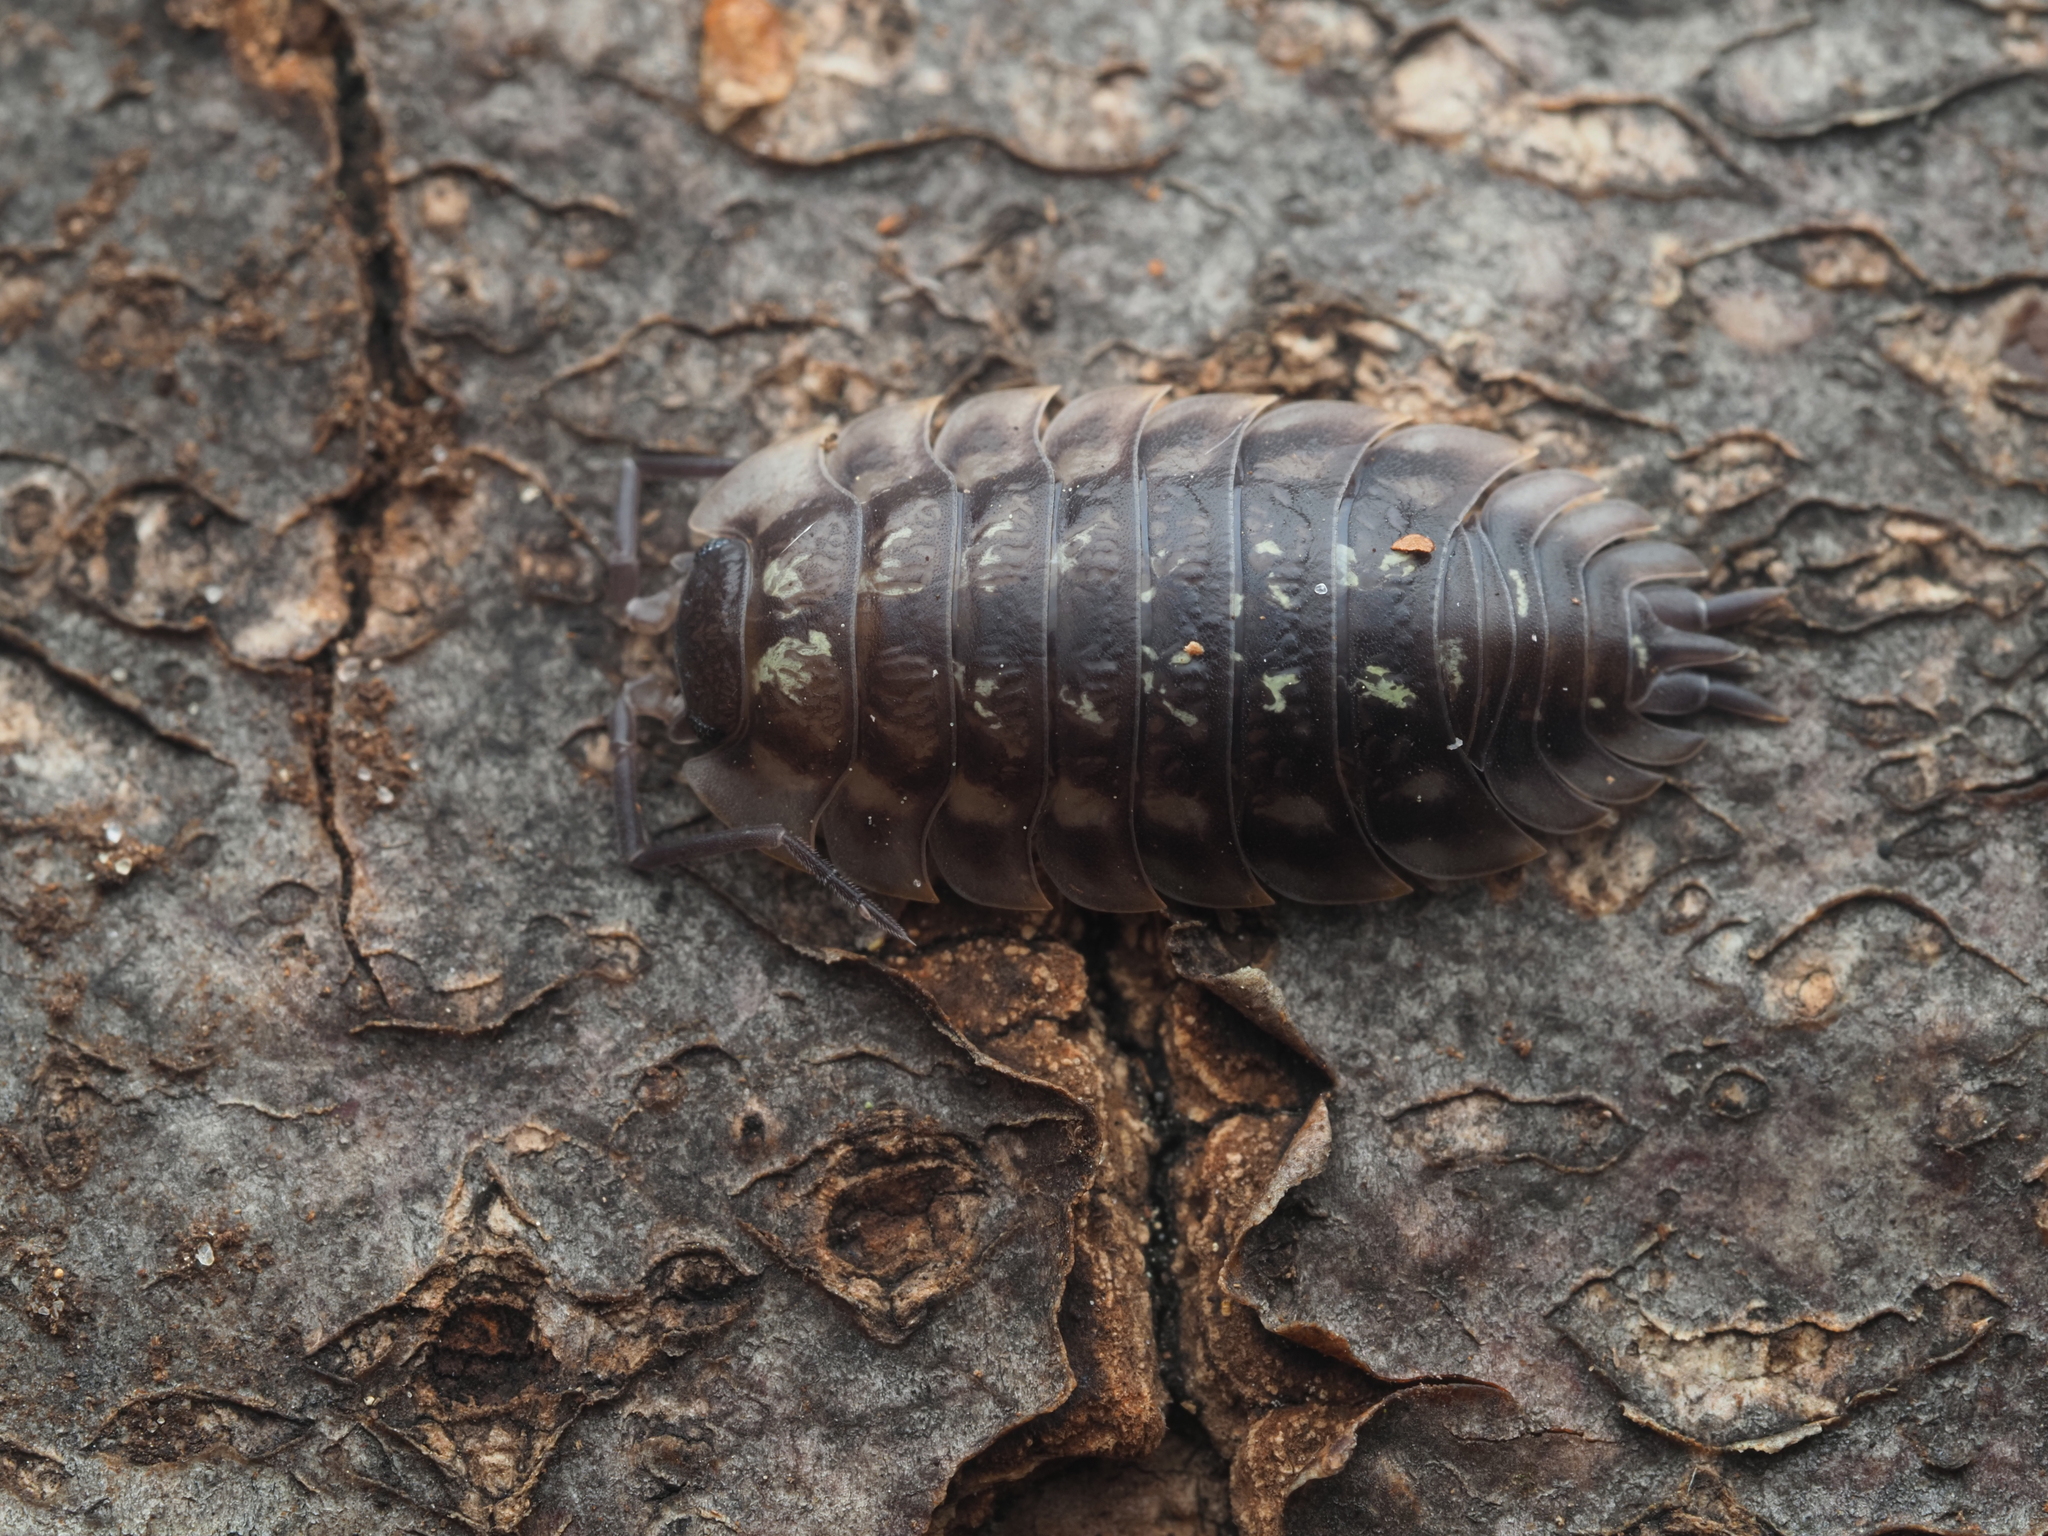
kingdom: Animalia
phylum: Arthropoda
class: Malacostraca
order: Isopoda
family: Oniscidae
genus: Oniscus
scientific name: Oniscus asellus
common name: Common shiny woodlouse
